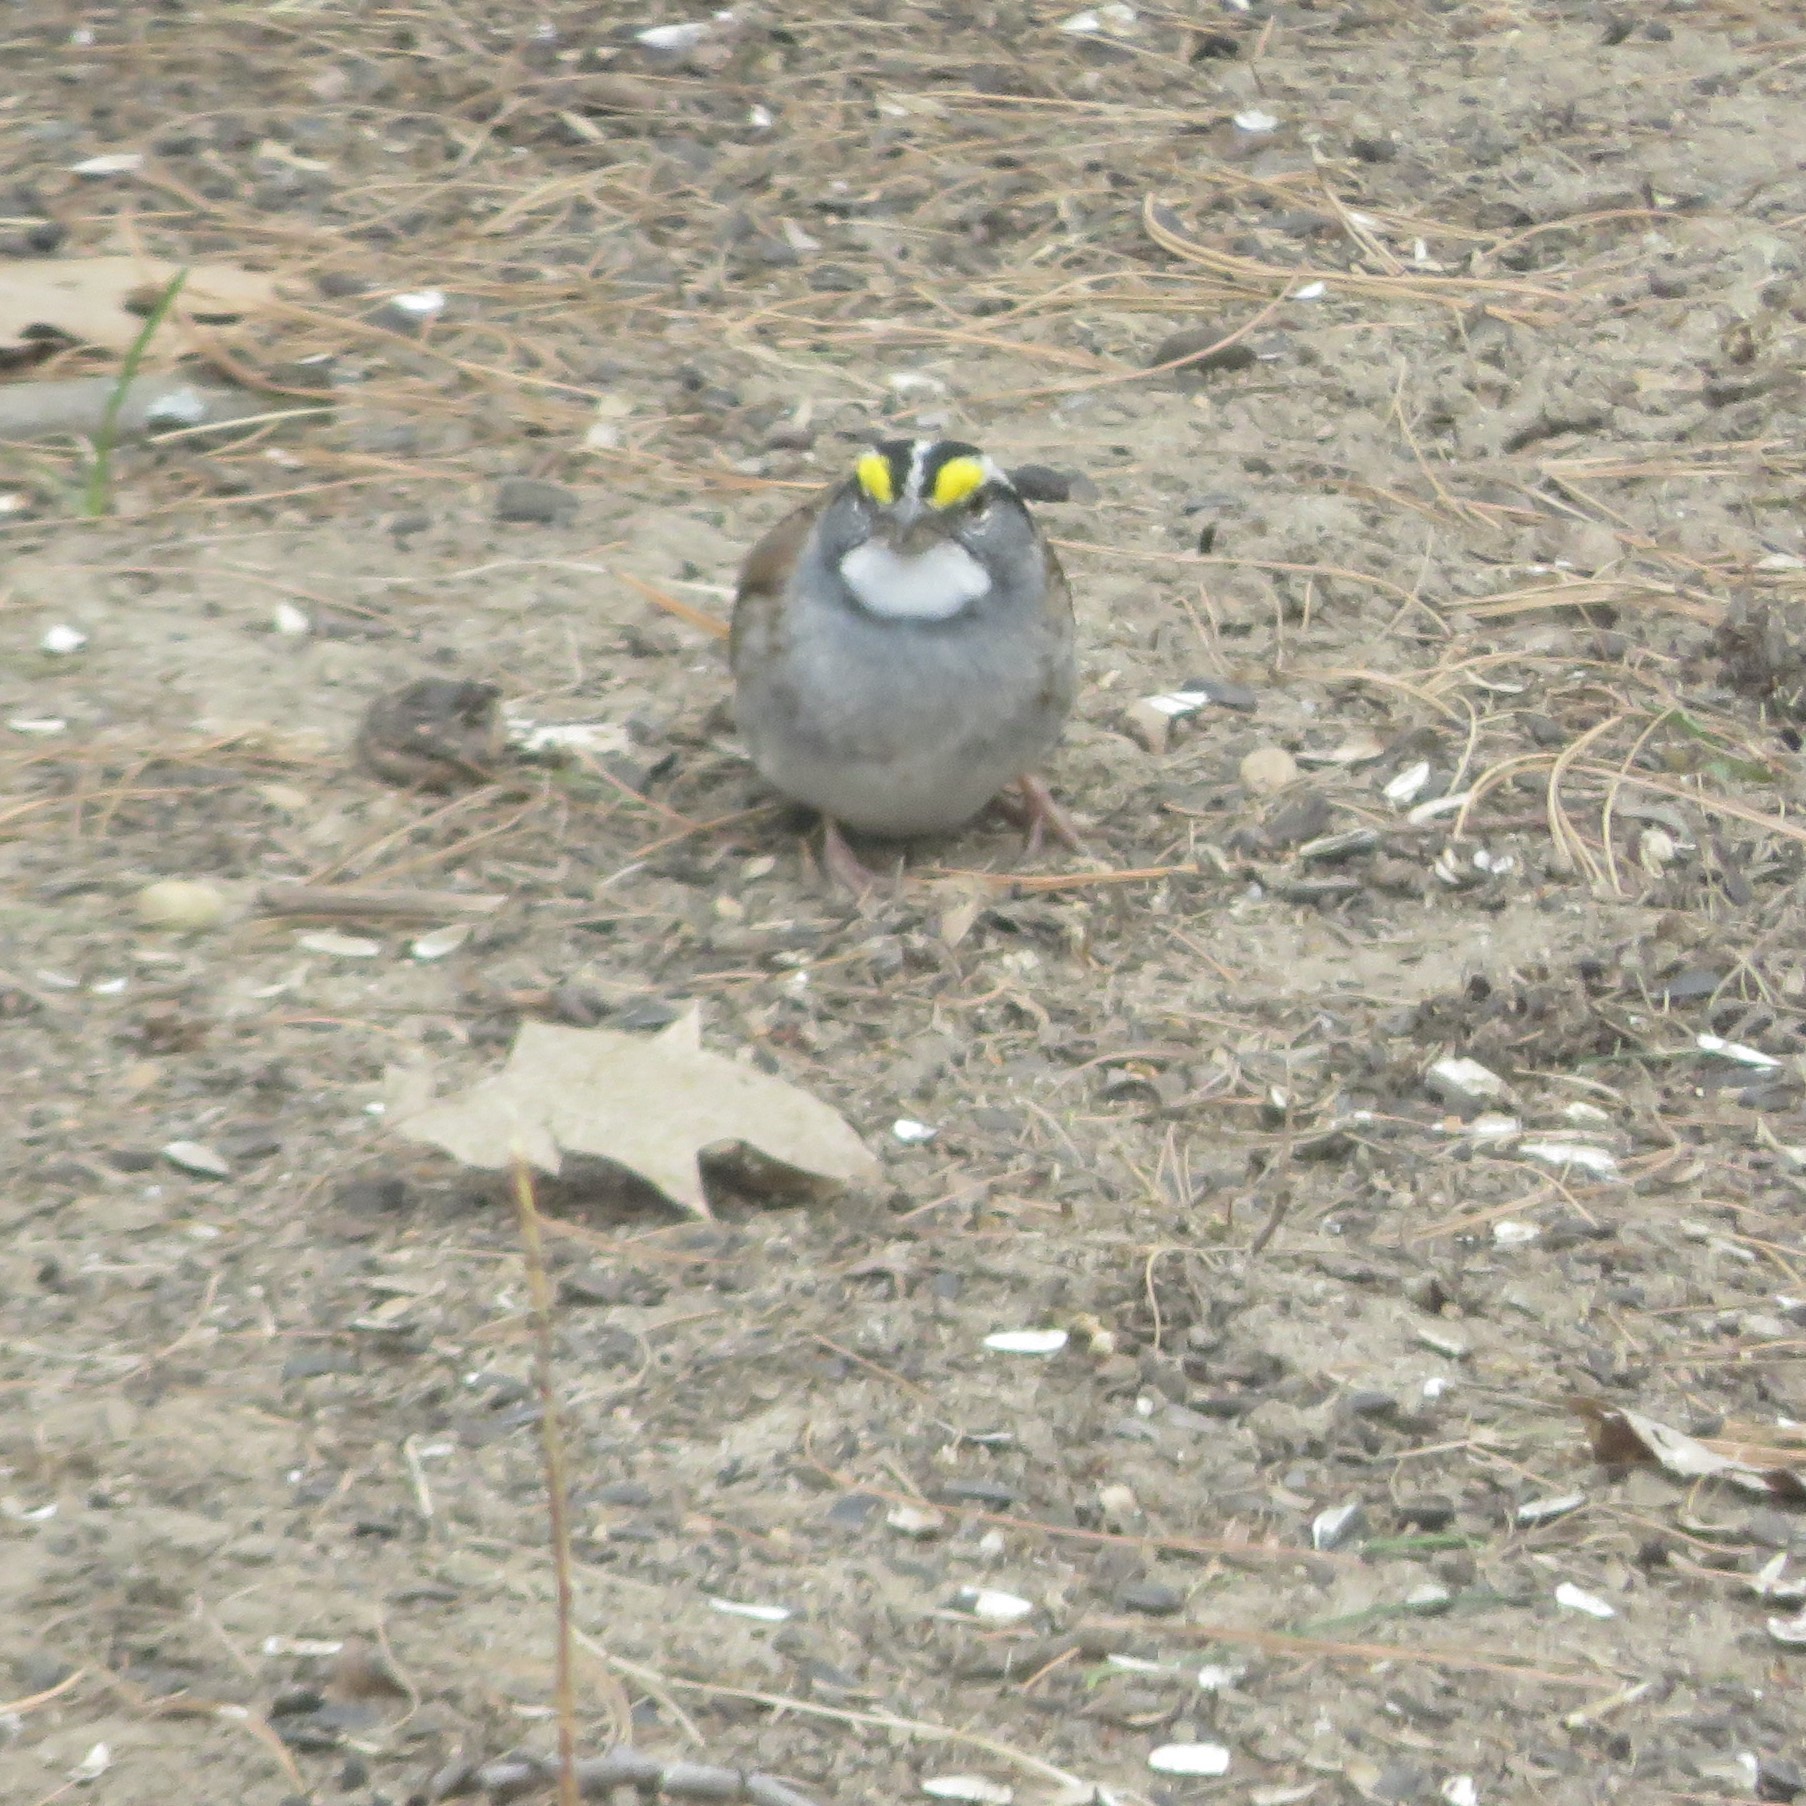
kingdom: Animalia
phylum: Chordata
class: Aves
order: Passeriformes
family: Passerellidae
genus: Zonotrichia
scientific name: Zonotrichia albicollis
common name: White-throated sparrow
